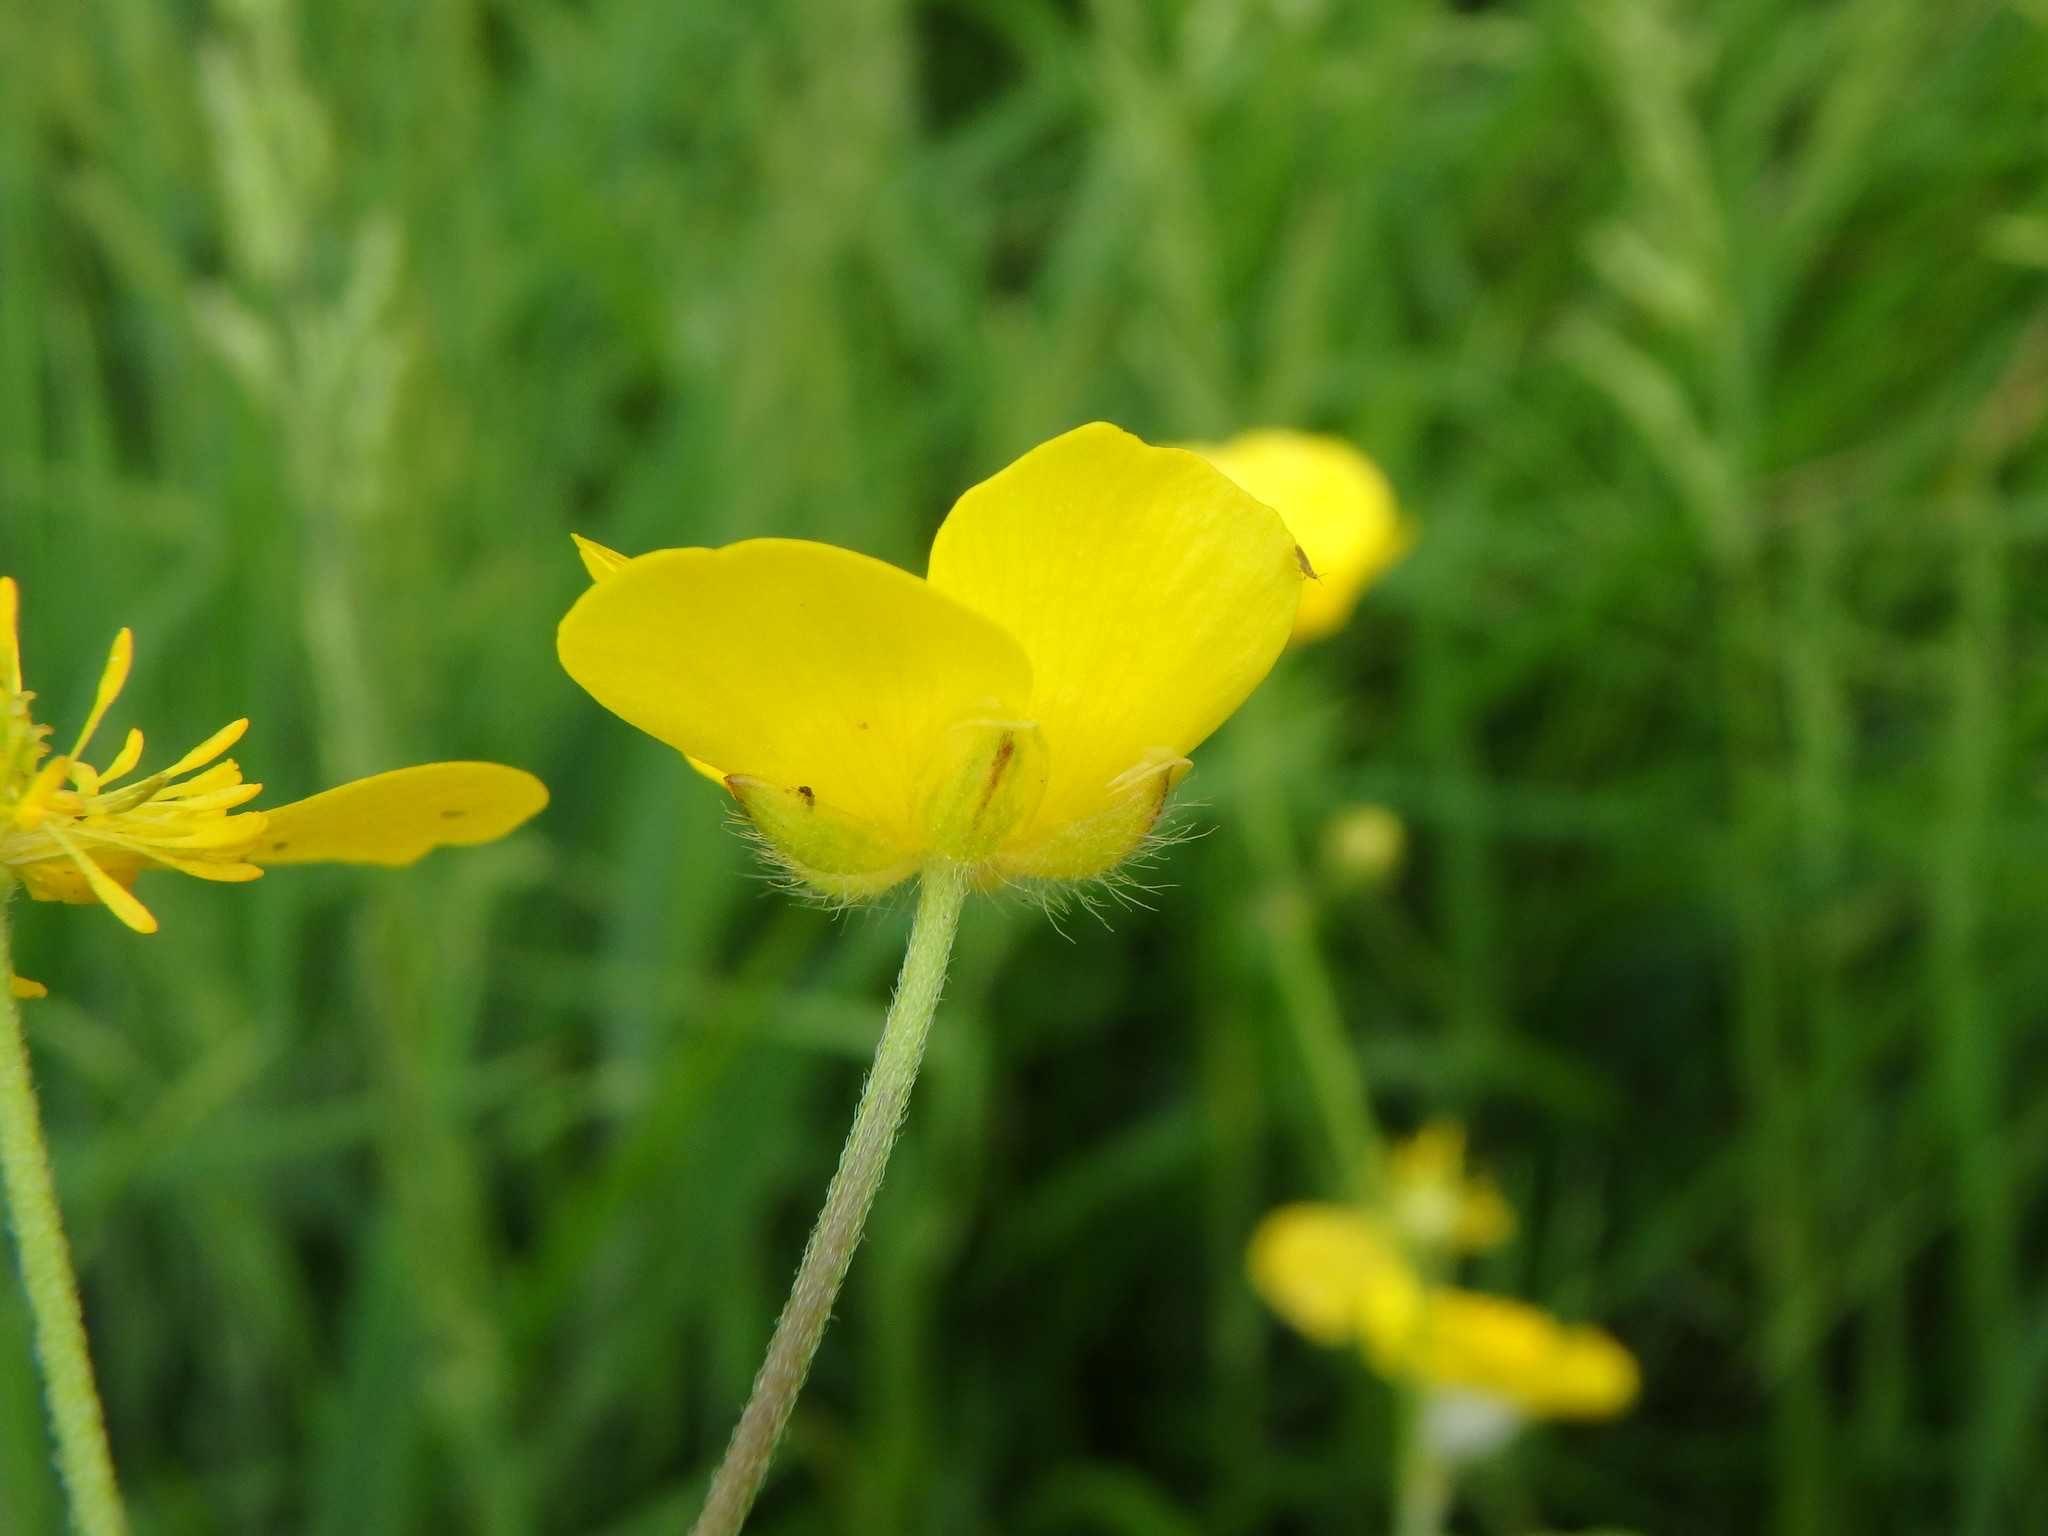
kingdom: Plantae
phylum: Tracheophyta
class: Magnoliopsida
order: Ranunculales
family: Ranunculaceae
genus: Ranunculus
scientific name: Ranunculus acris
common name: Meadow buttercup
